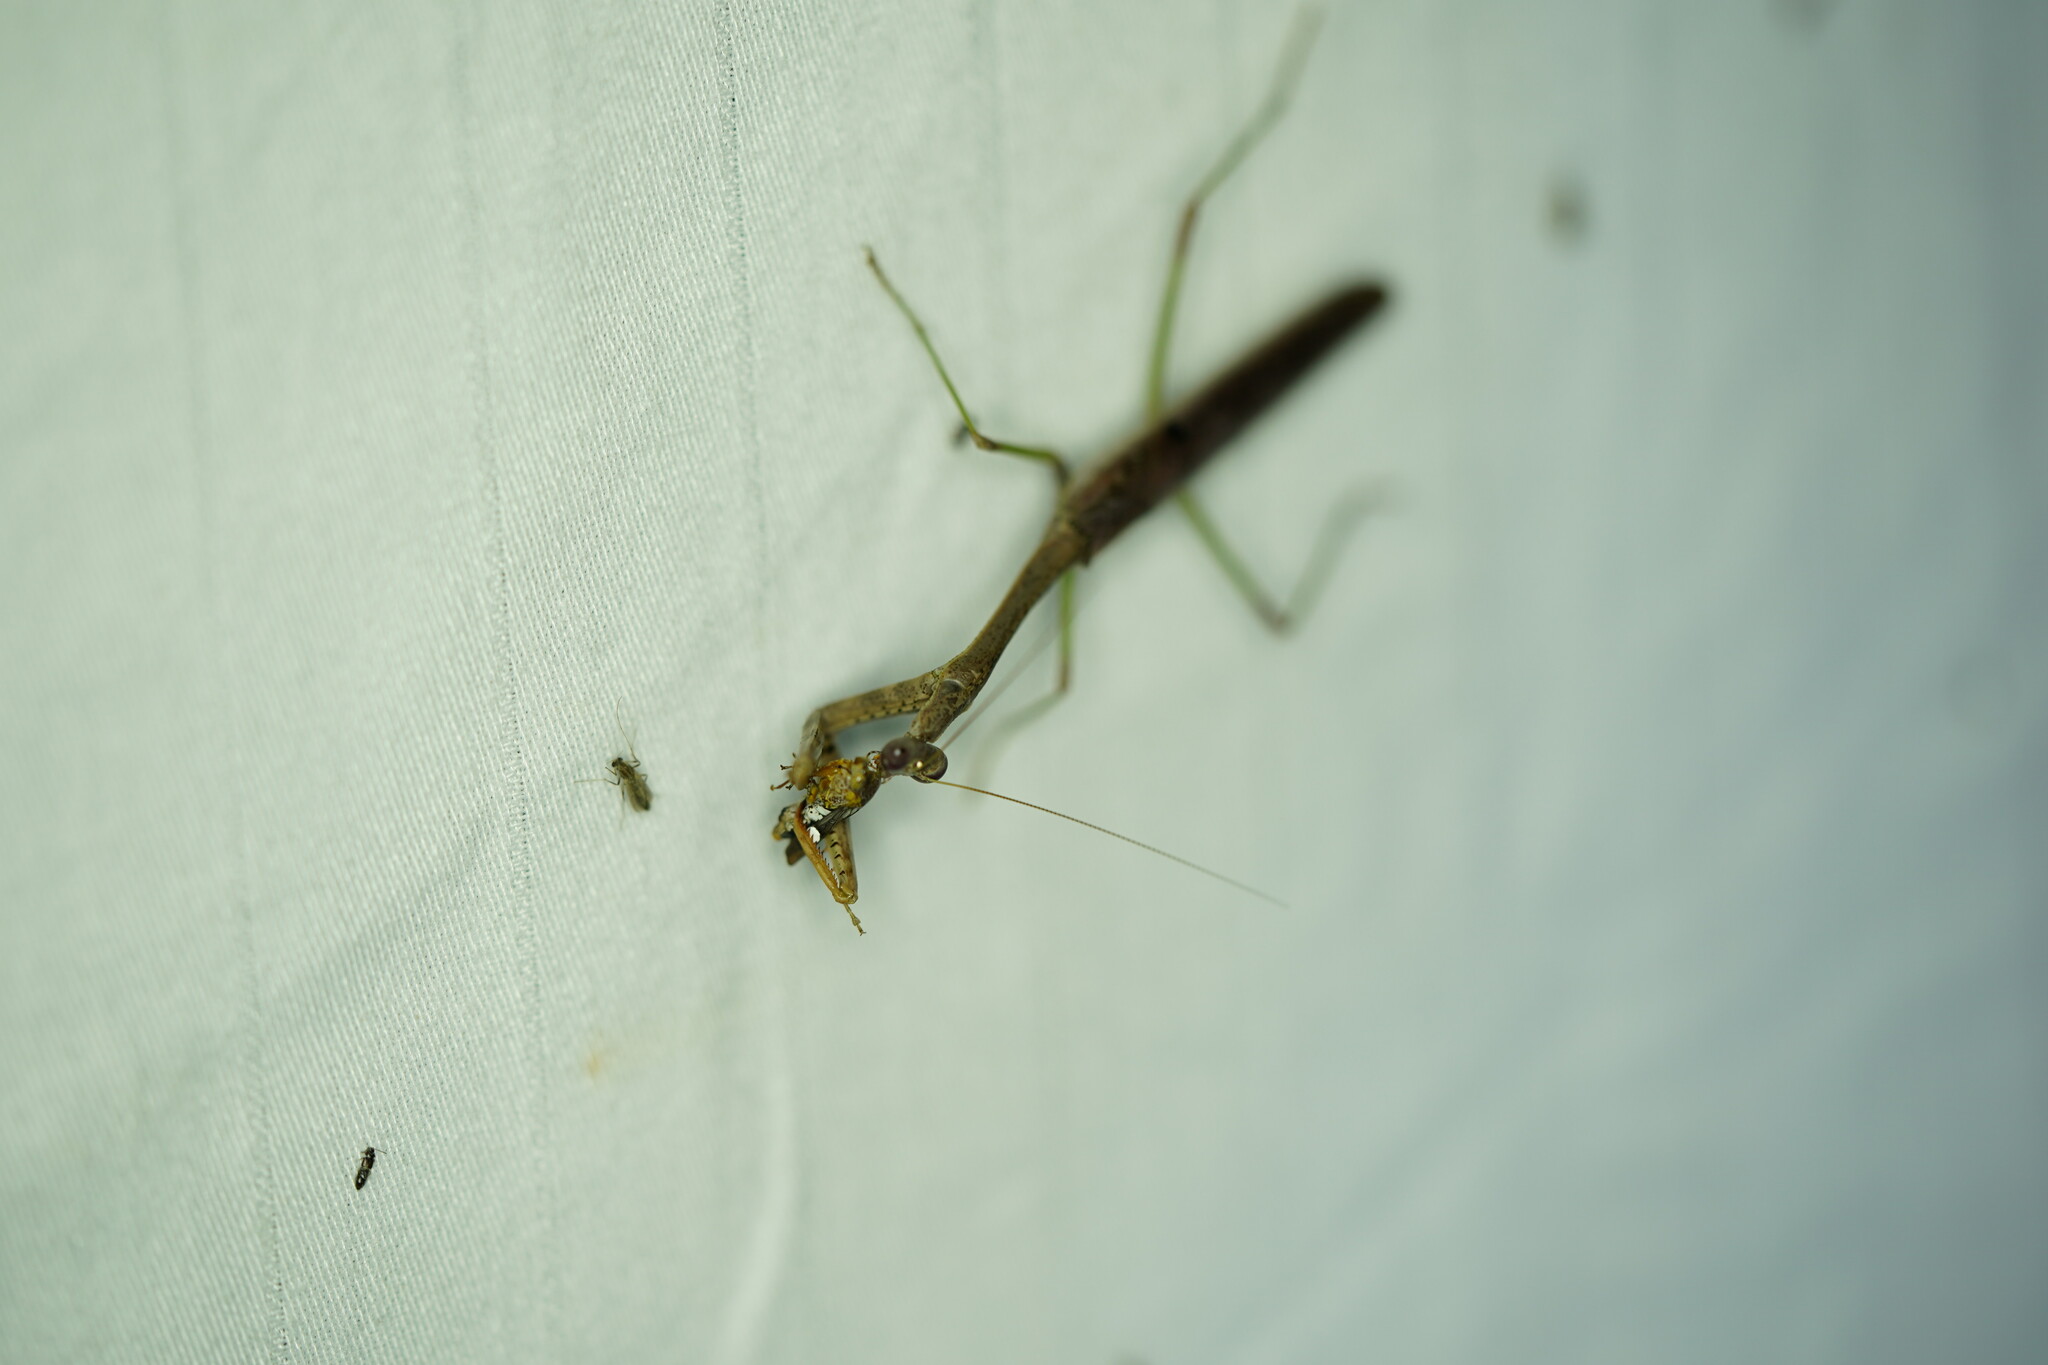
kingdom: Animalia
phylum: Arthropoda
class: Insecta
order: Mantodea
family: Mantidae
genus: Stagmomantis
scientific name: Stagmomantis carolina
